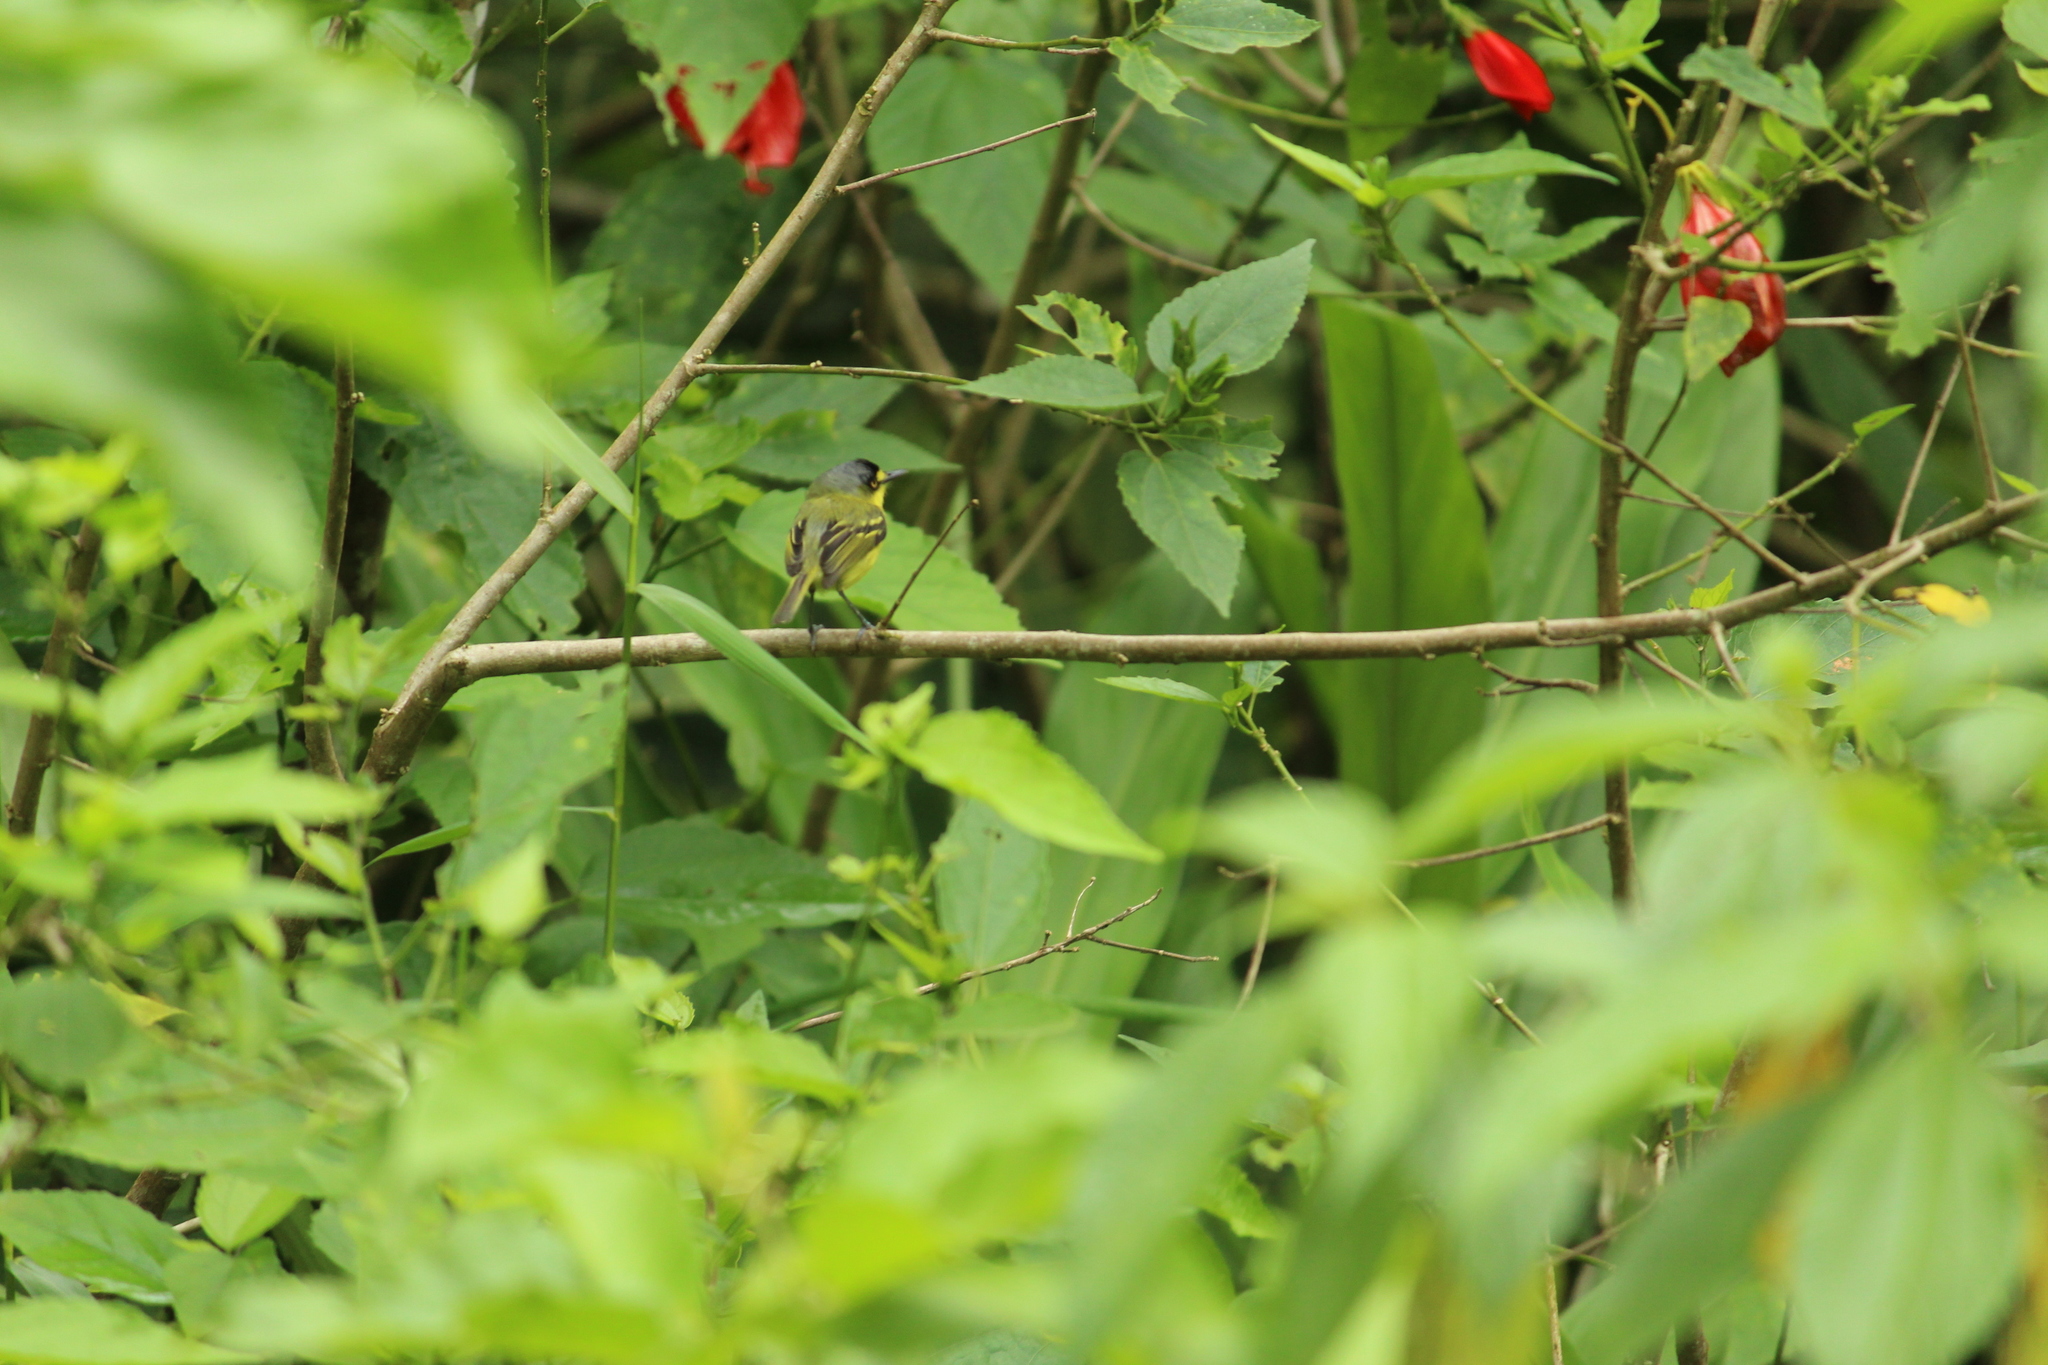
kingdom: Animalia
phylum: Chordata
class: Aves
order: Passeriformes
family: Tyrannidae
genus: Todirostrum
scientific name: Todirostrum poliocephalum
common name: Yellow-lored tody-flycatcher
